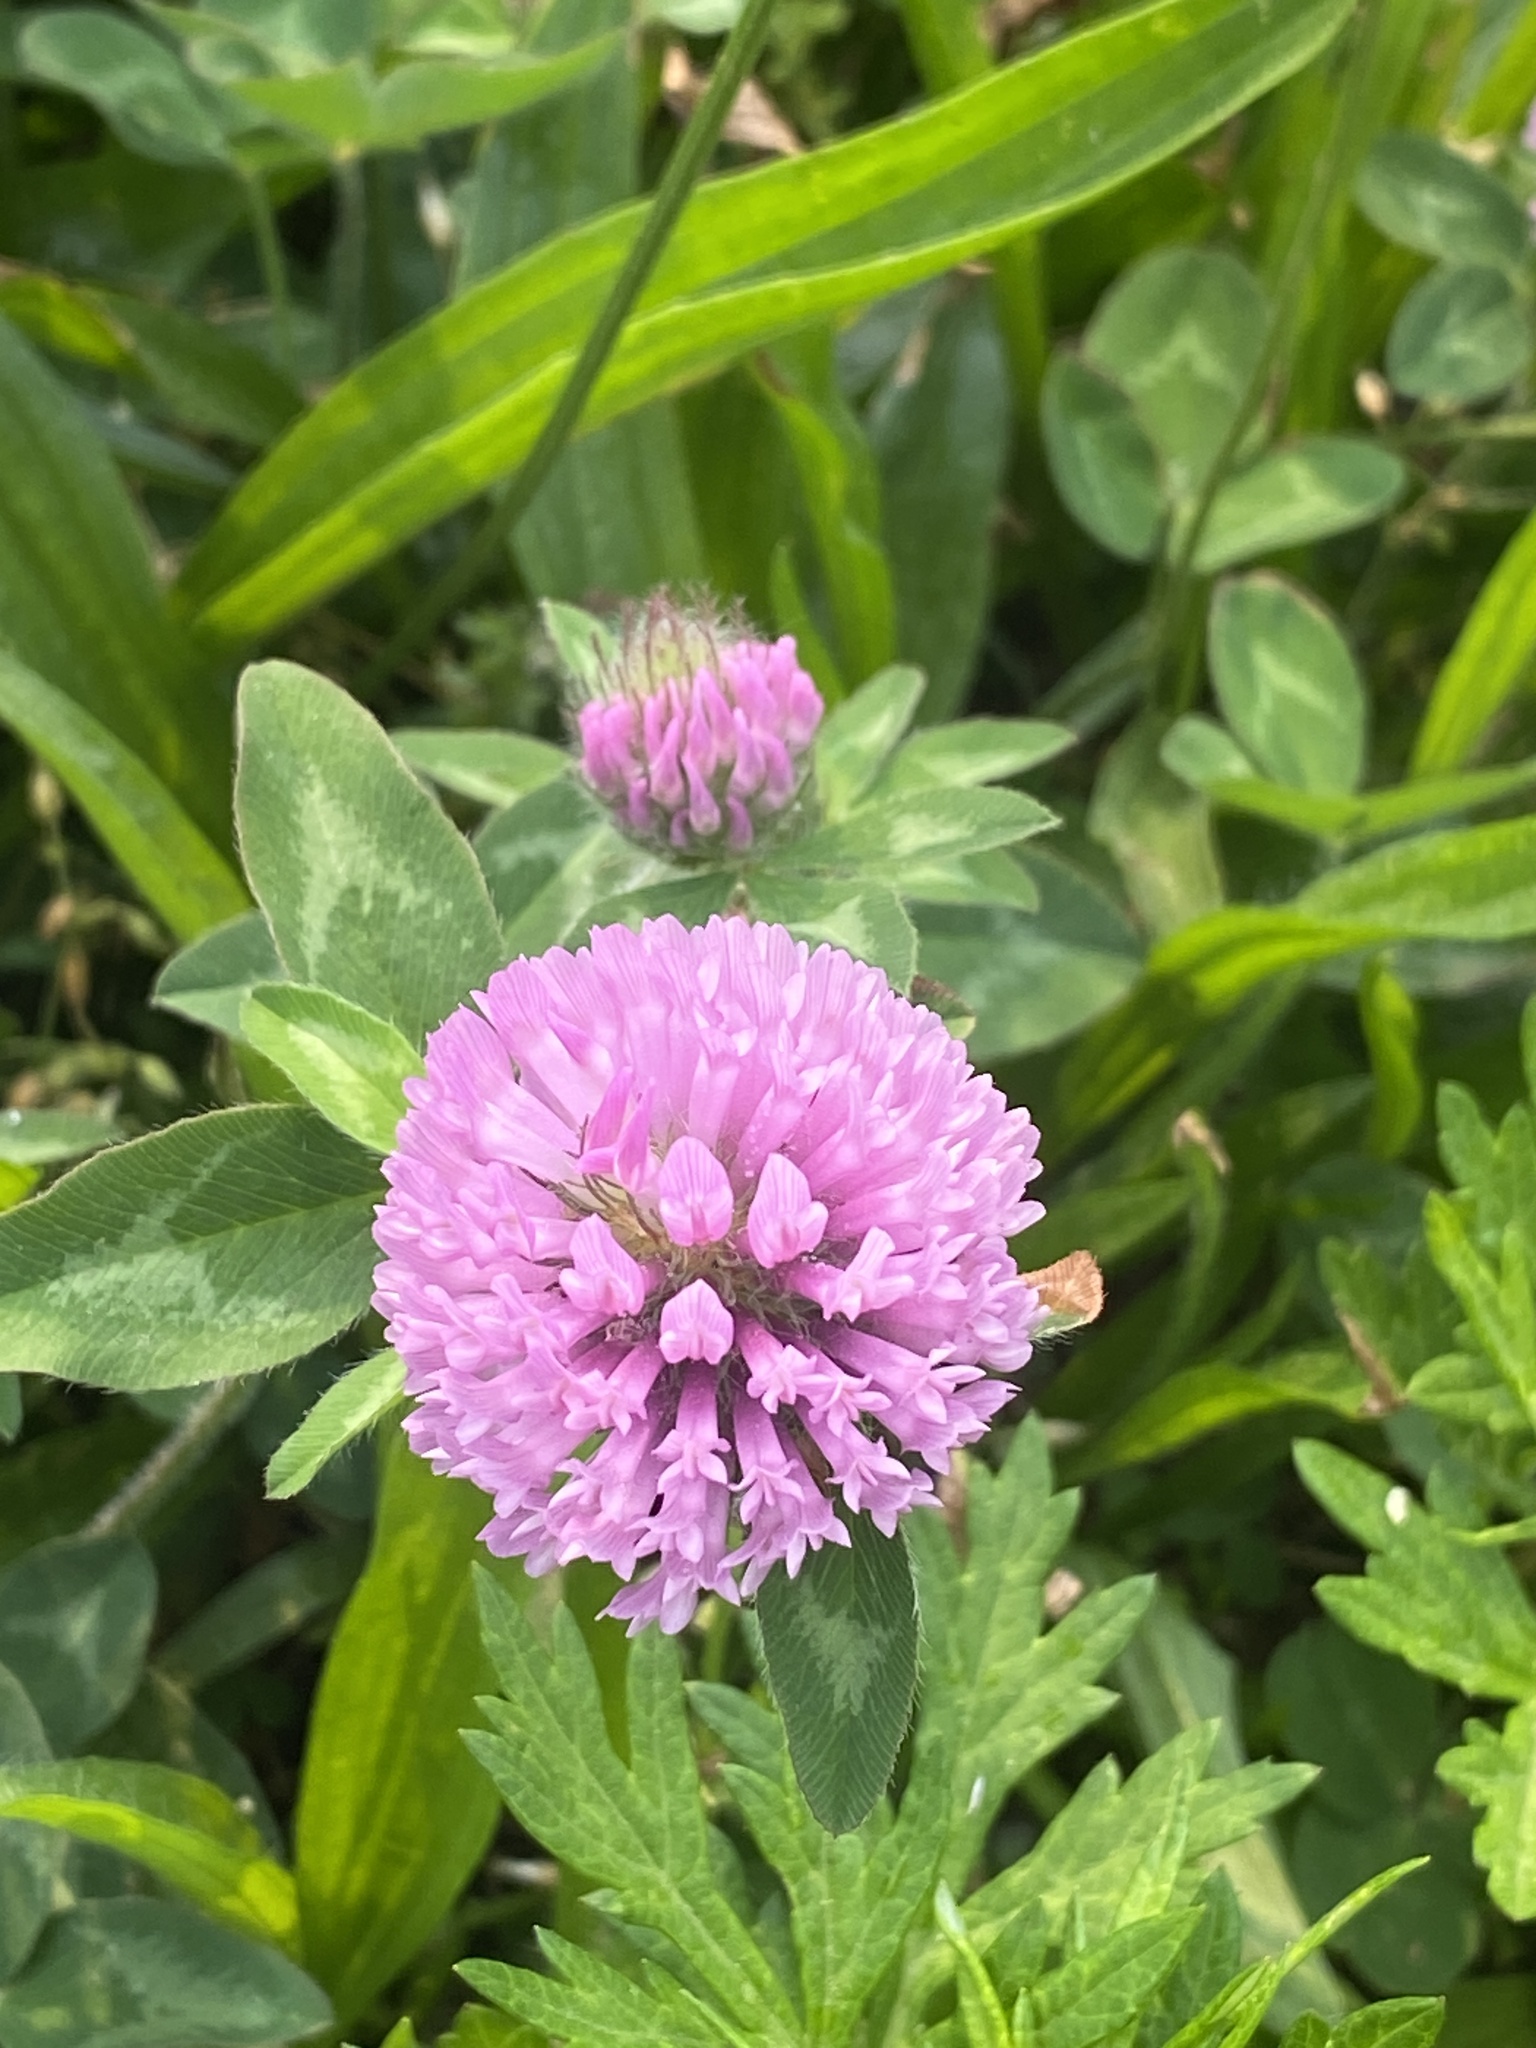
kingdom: Plantae
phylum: Tracheophyta
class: Magnoliopsida
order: Fabales
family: Fabaceae
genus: Trifolium
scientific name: Trifolium pratense
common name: Red clover
